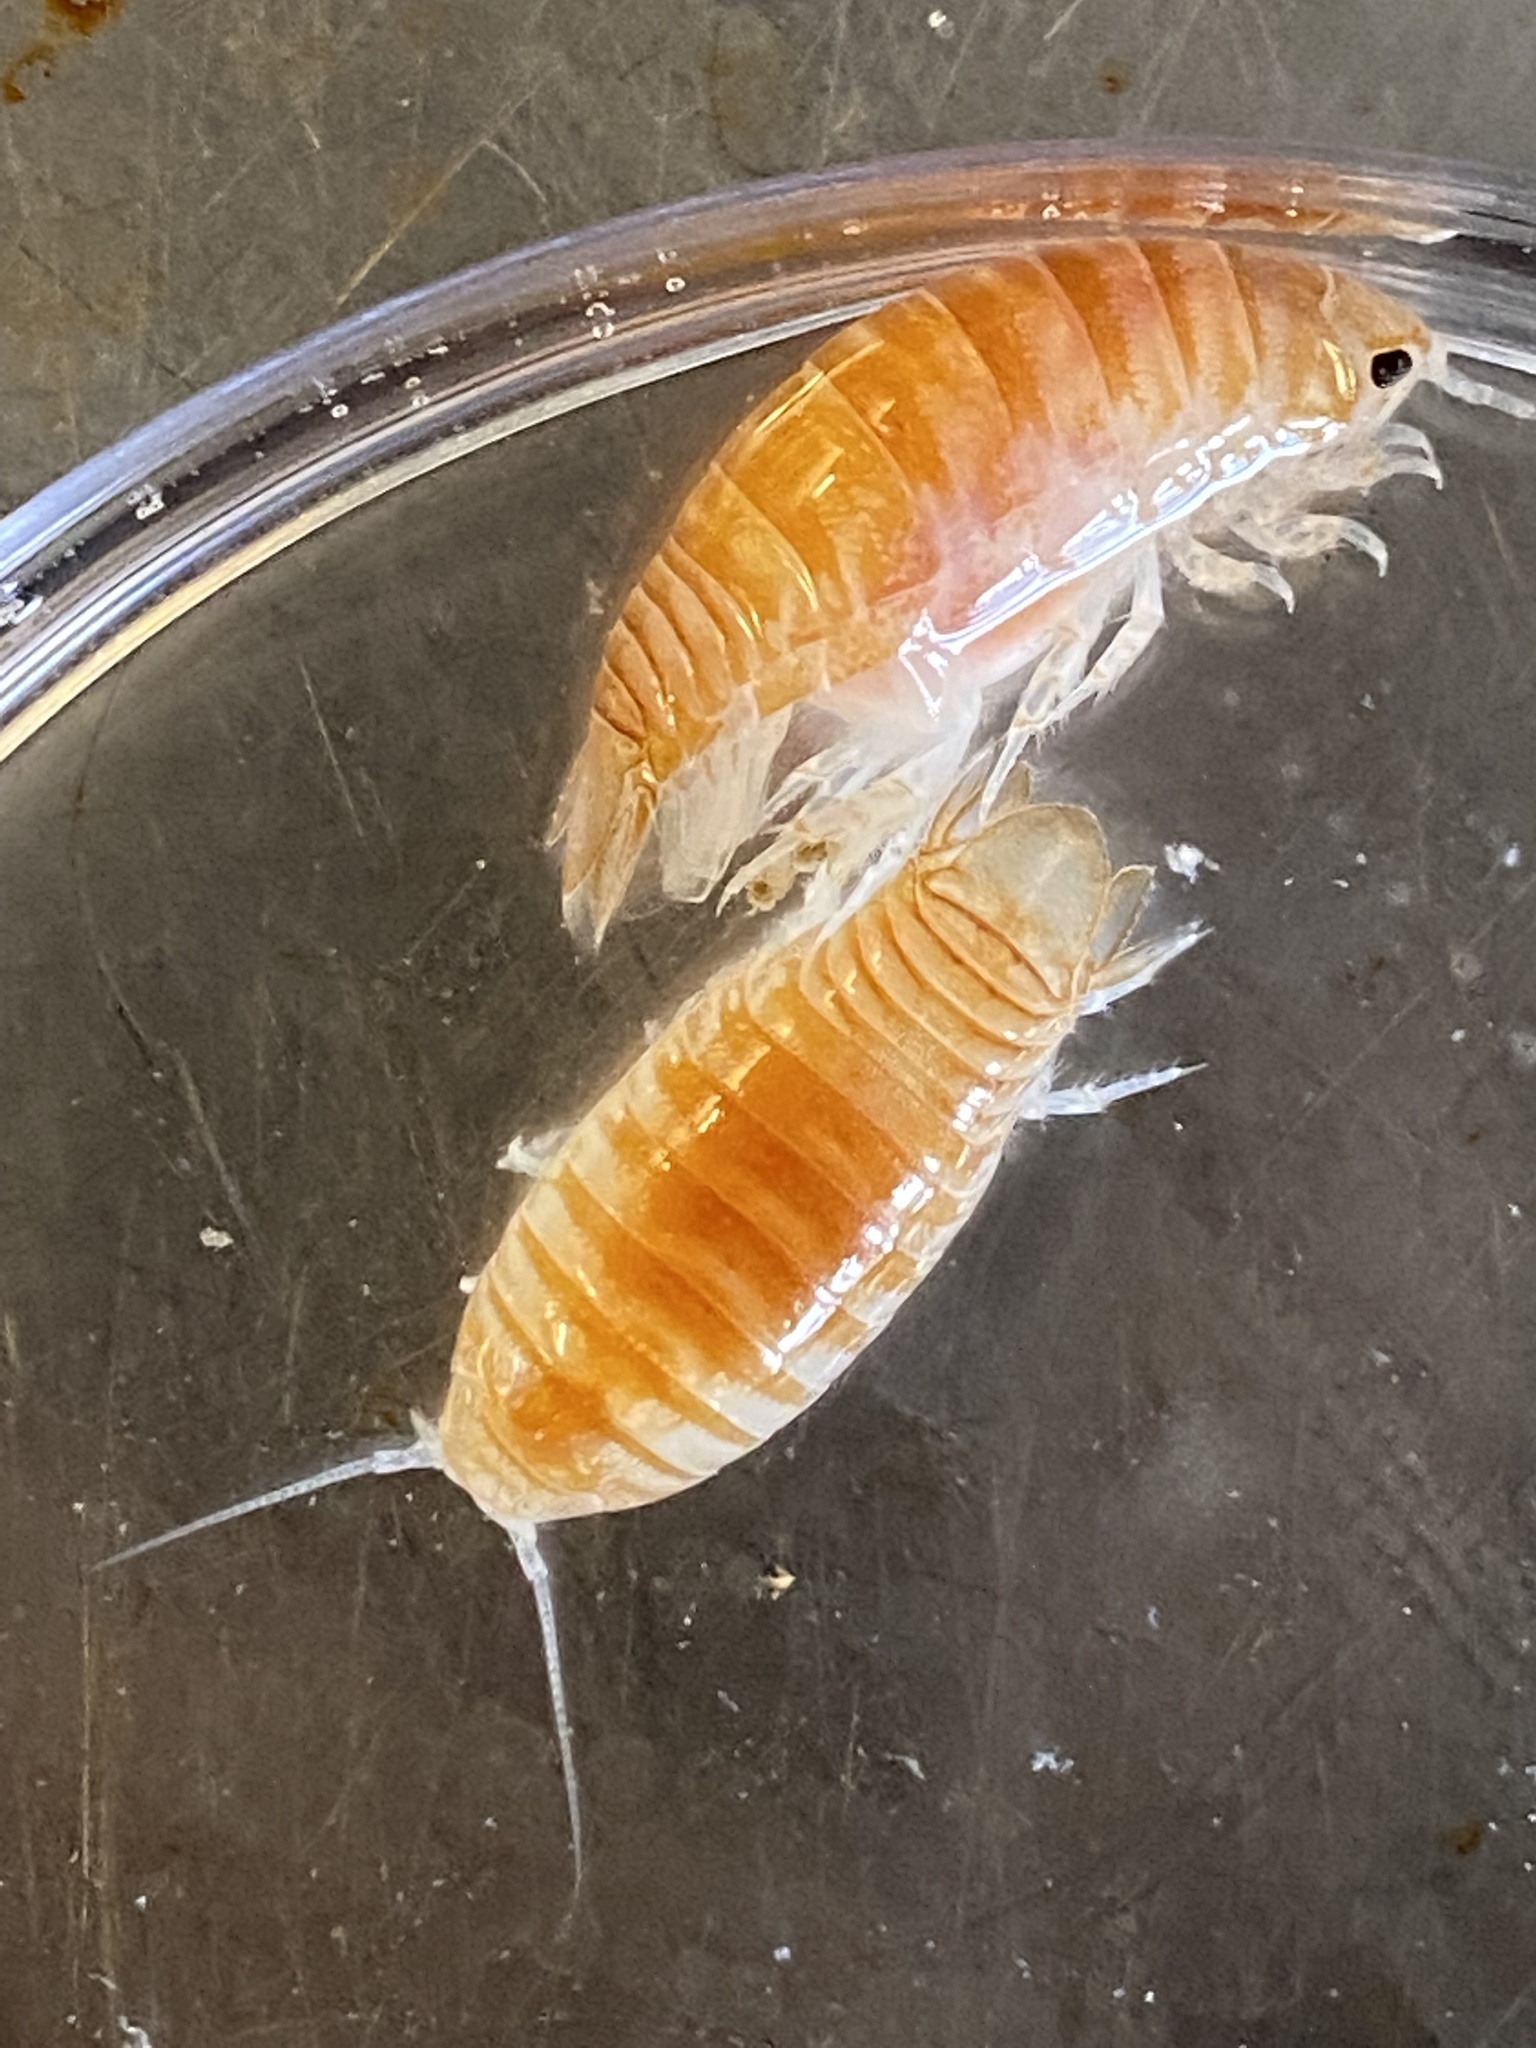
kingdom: Animalia
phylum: Arthropoda
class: Malacostraca
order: Isopoda
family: Cirolanidae
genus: Natatolana
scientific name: Natatolana borealis
